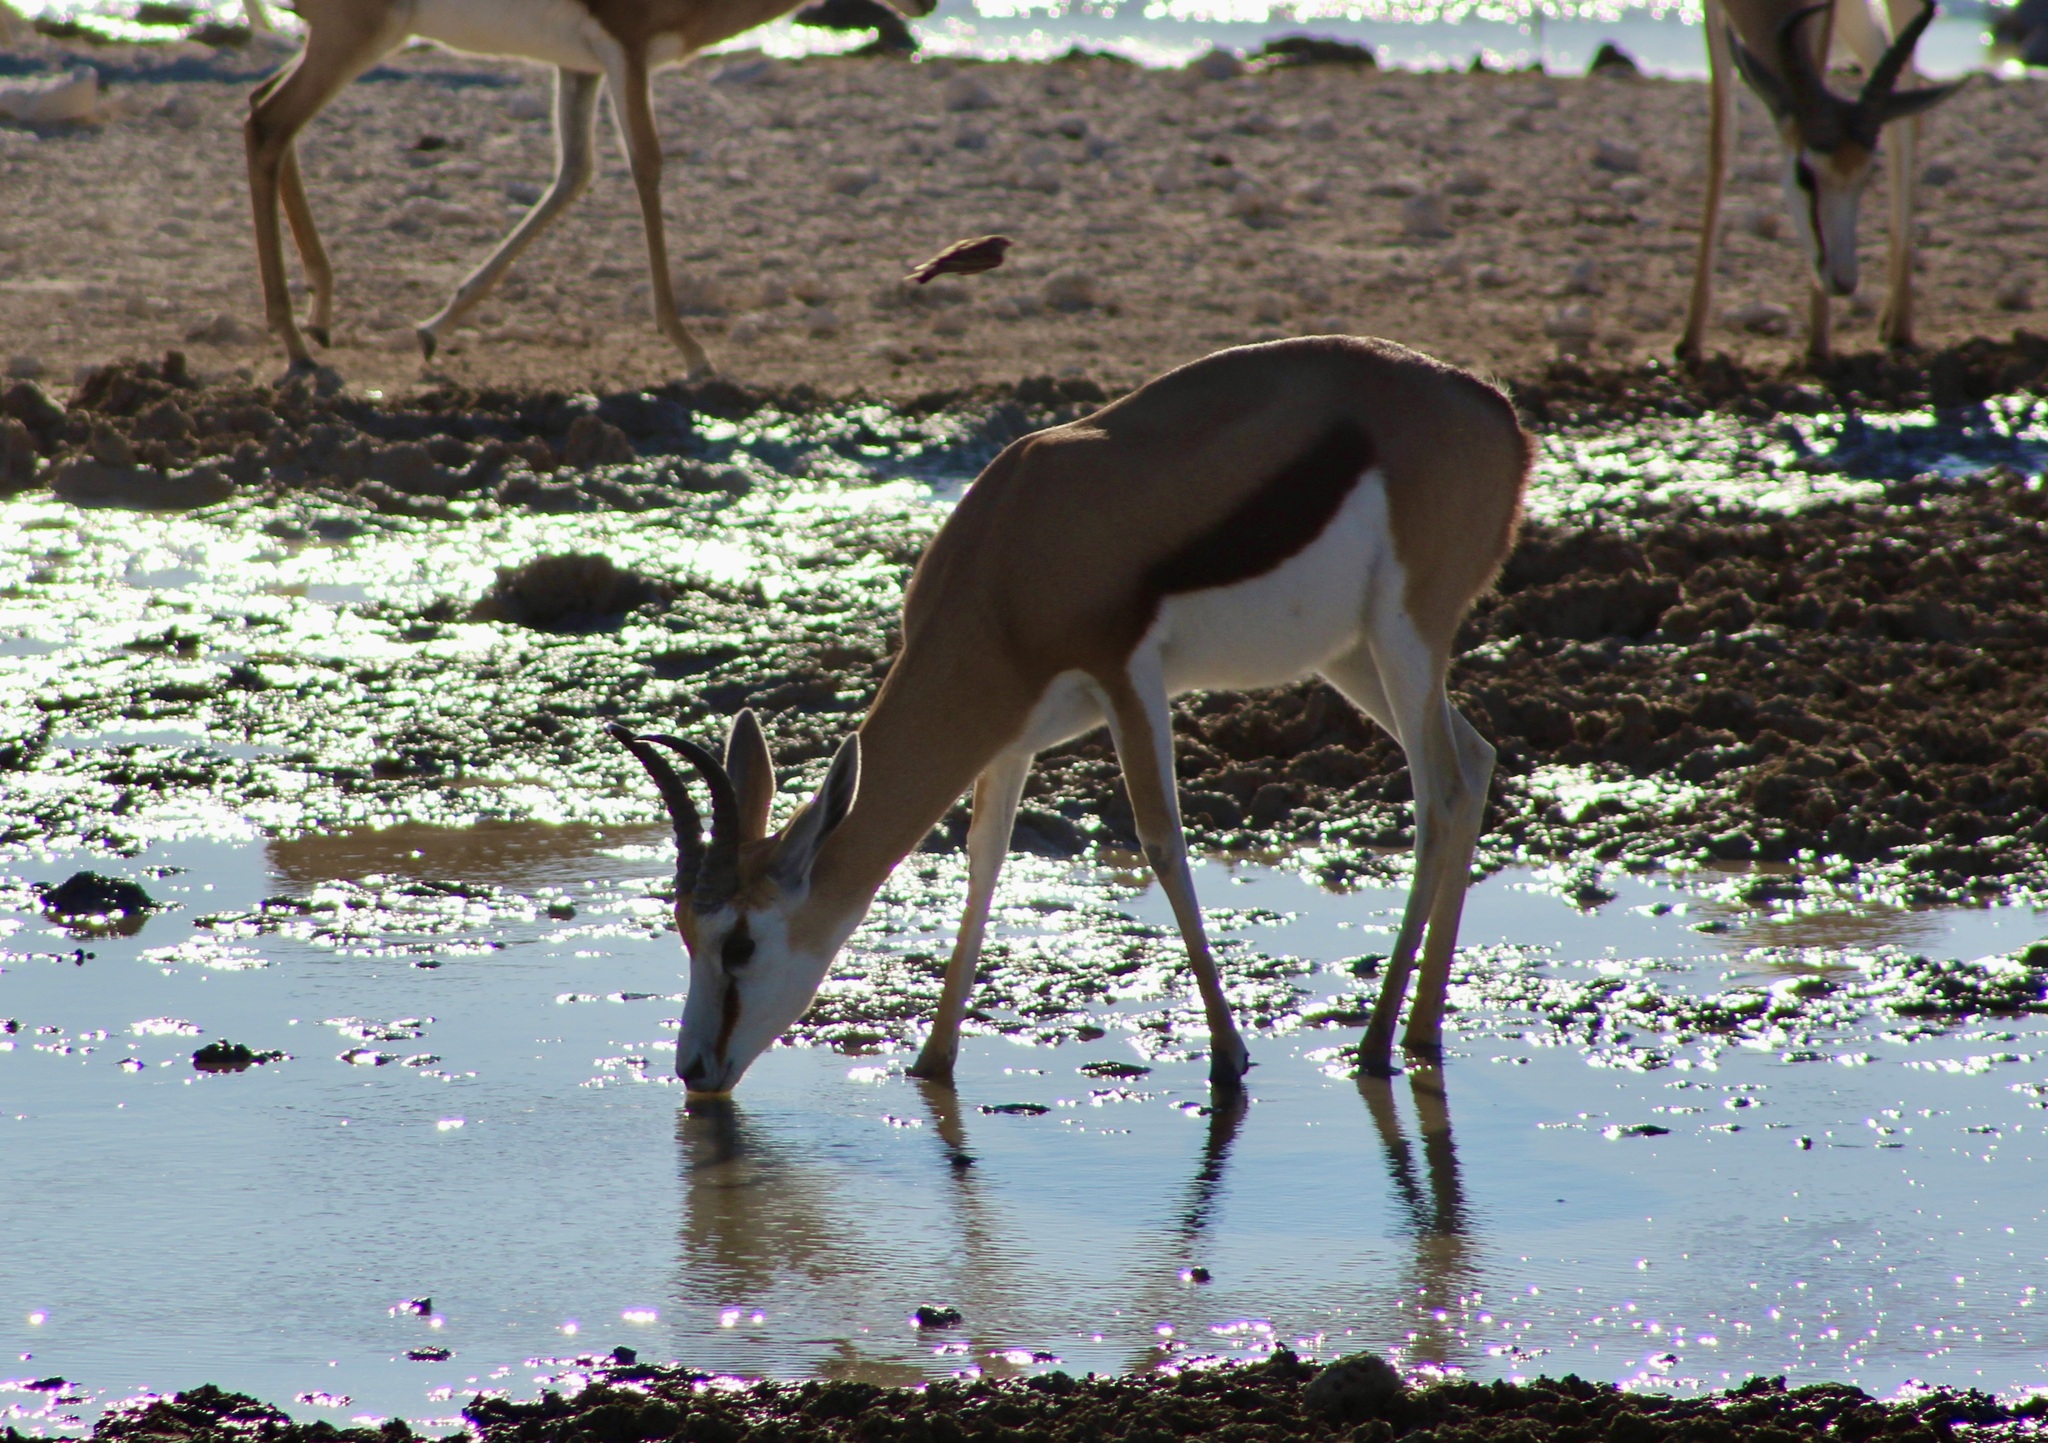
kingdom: Animalia
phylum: Chordata
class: Mammalia
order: Artiodactyla
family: Bovidae
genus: Antidorcas
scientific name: Antidorcas marsupialis
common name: Springbok
